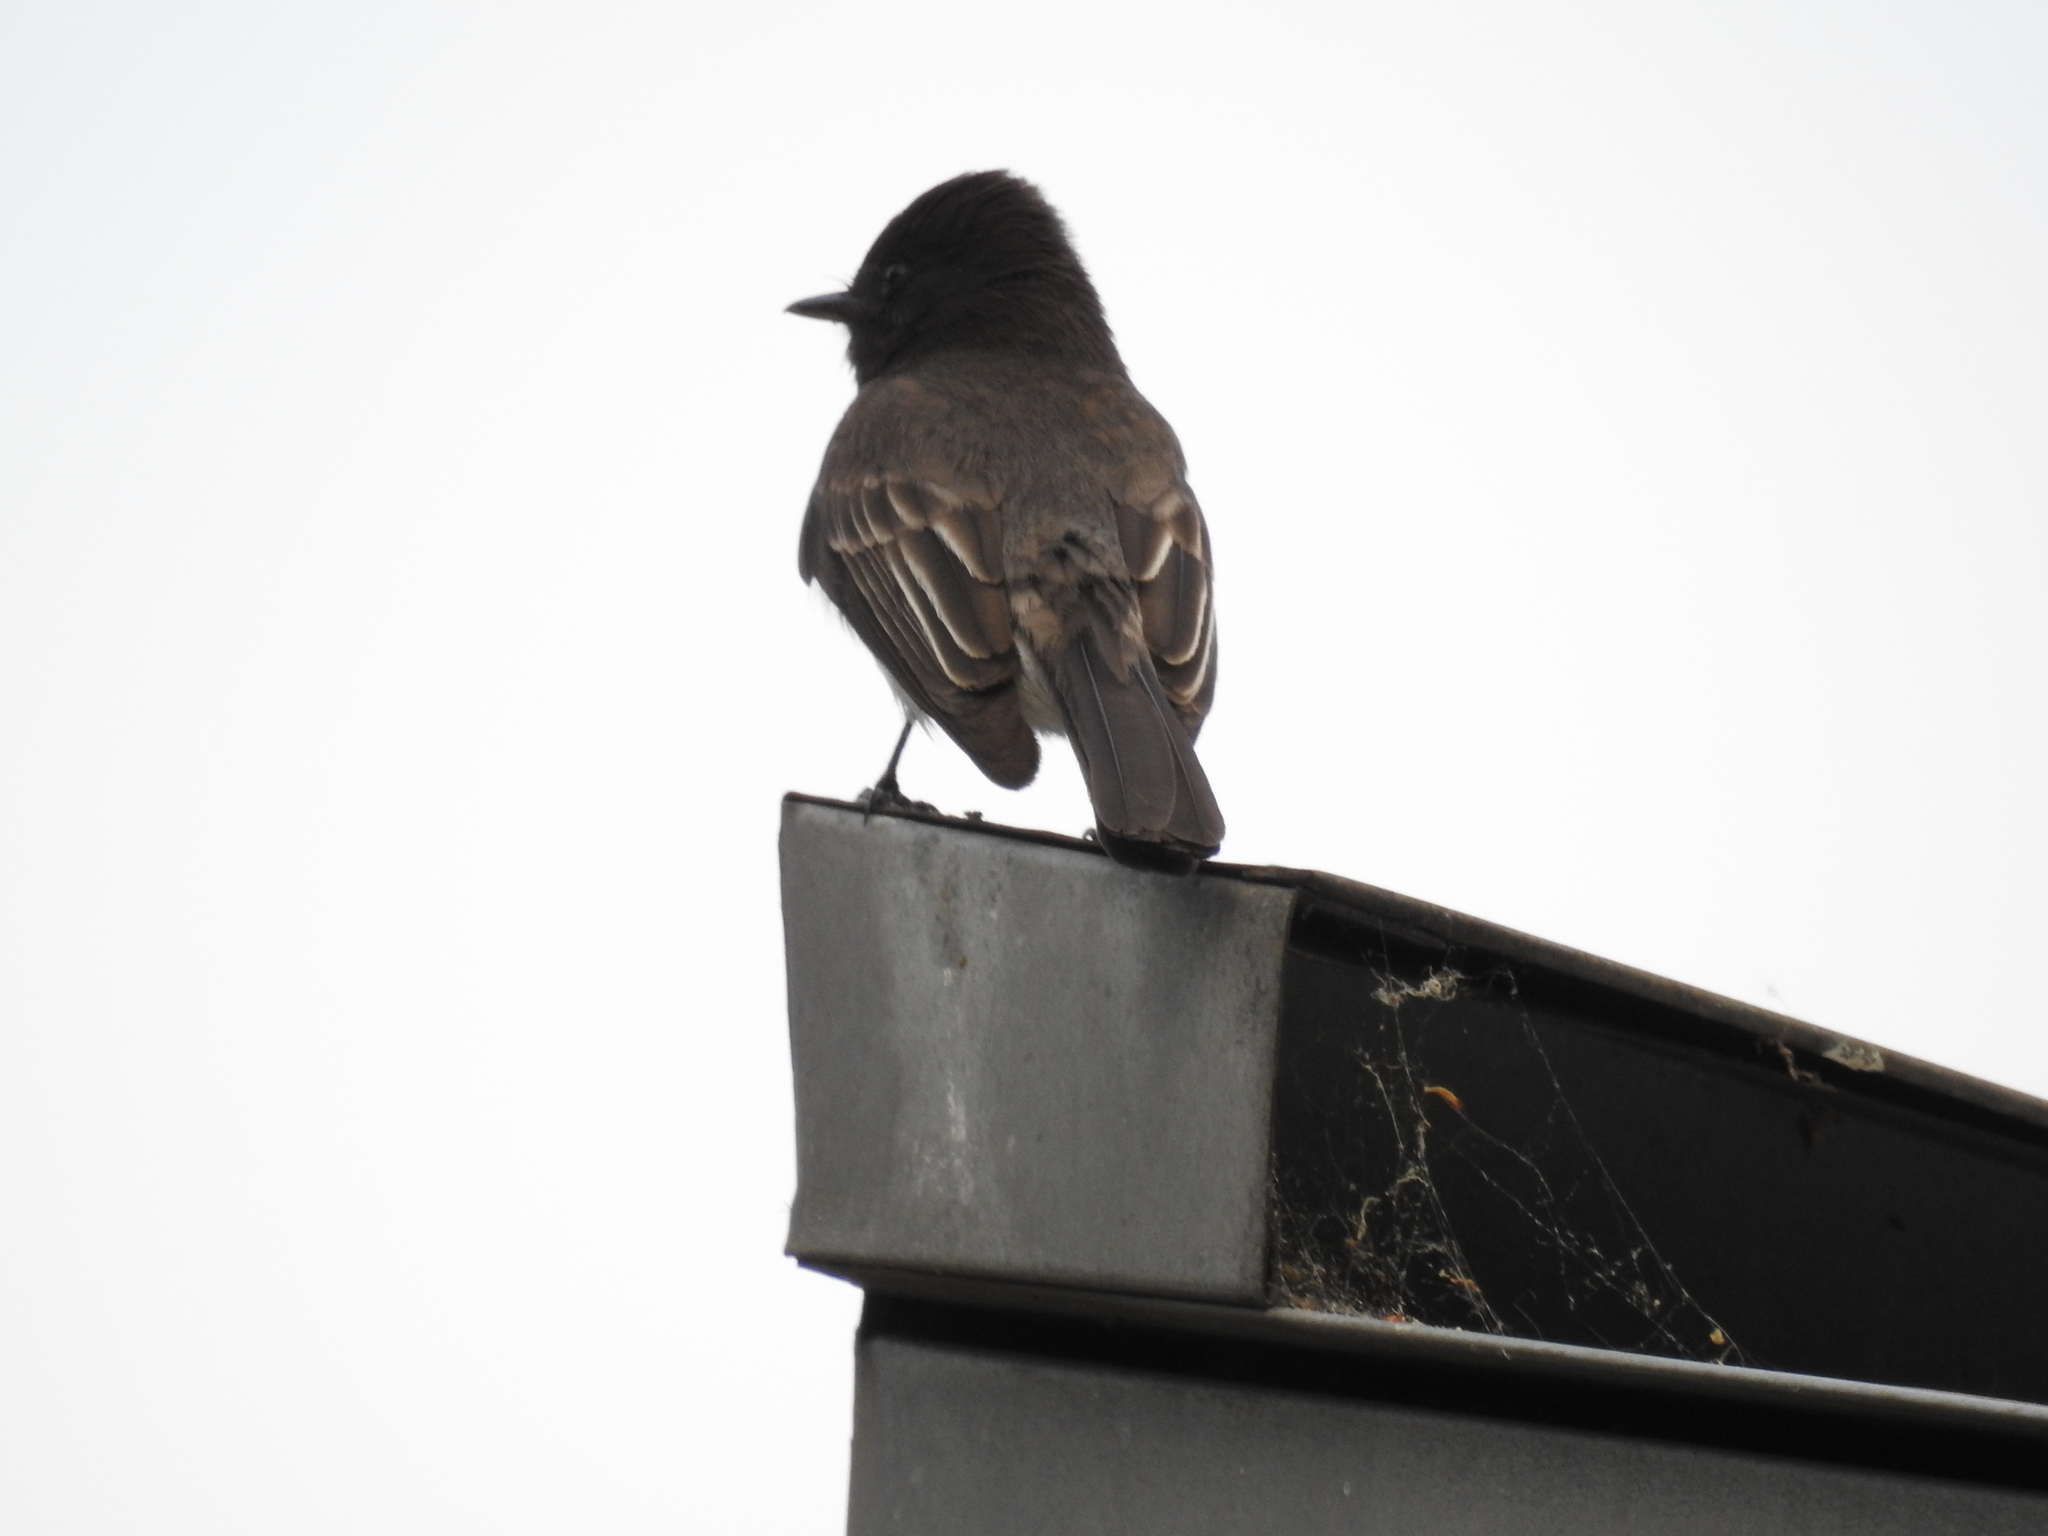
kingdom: Animalia
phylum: Chordata
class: Aves
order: Passeriformes
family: Tyrannidae
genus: Sayornis
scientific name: Sayornis nigricans
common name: Black phoebe
